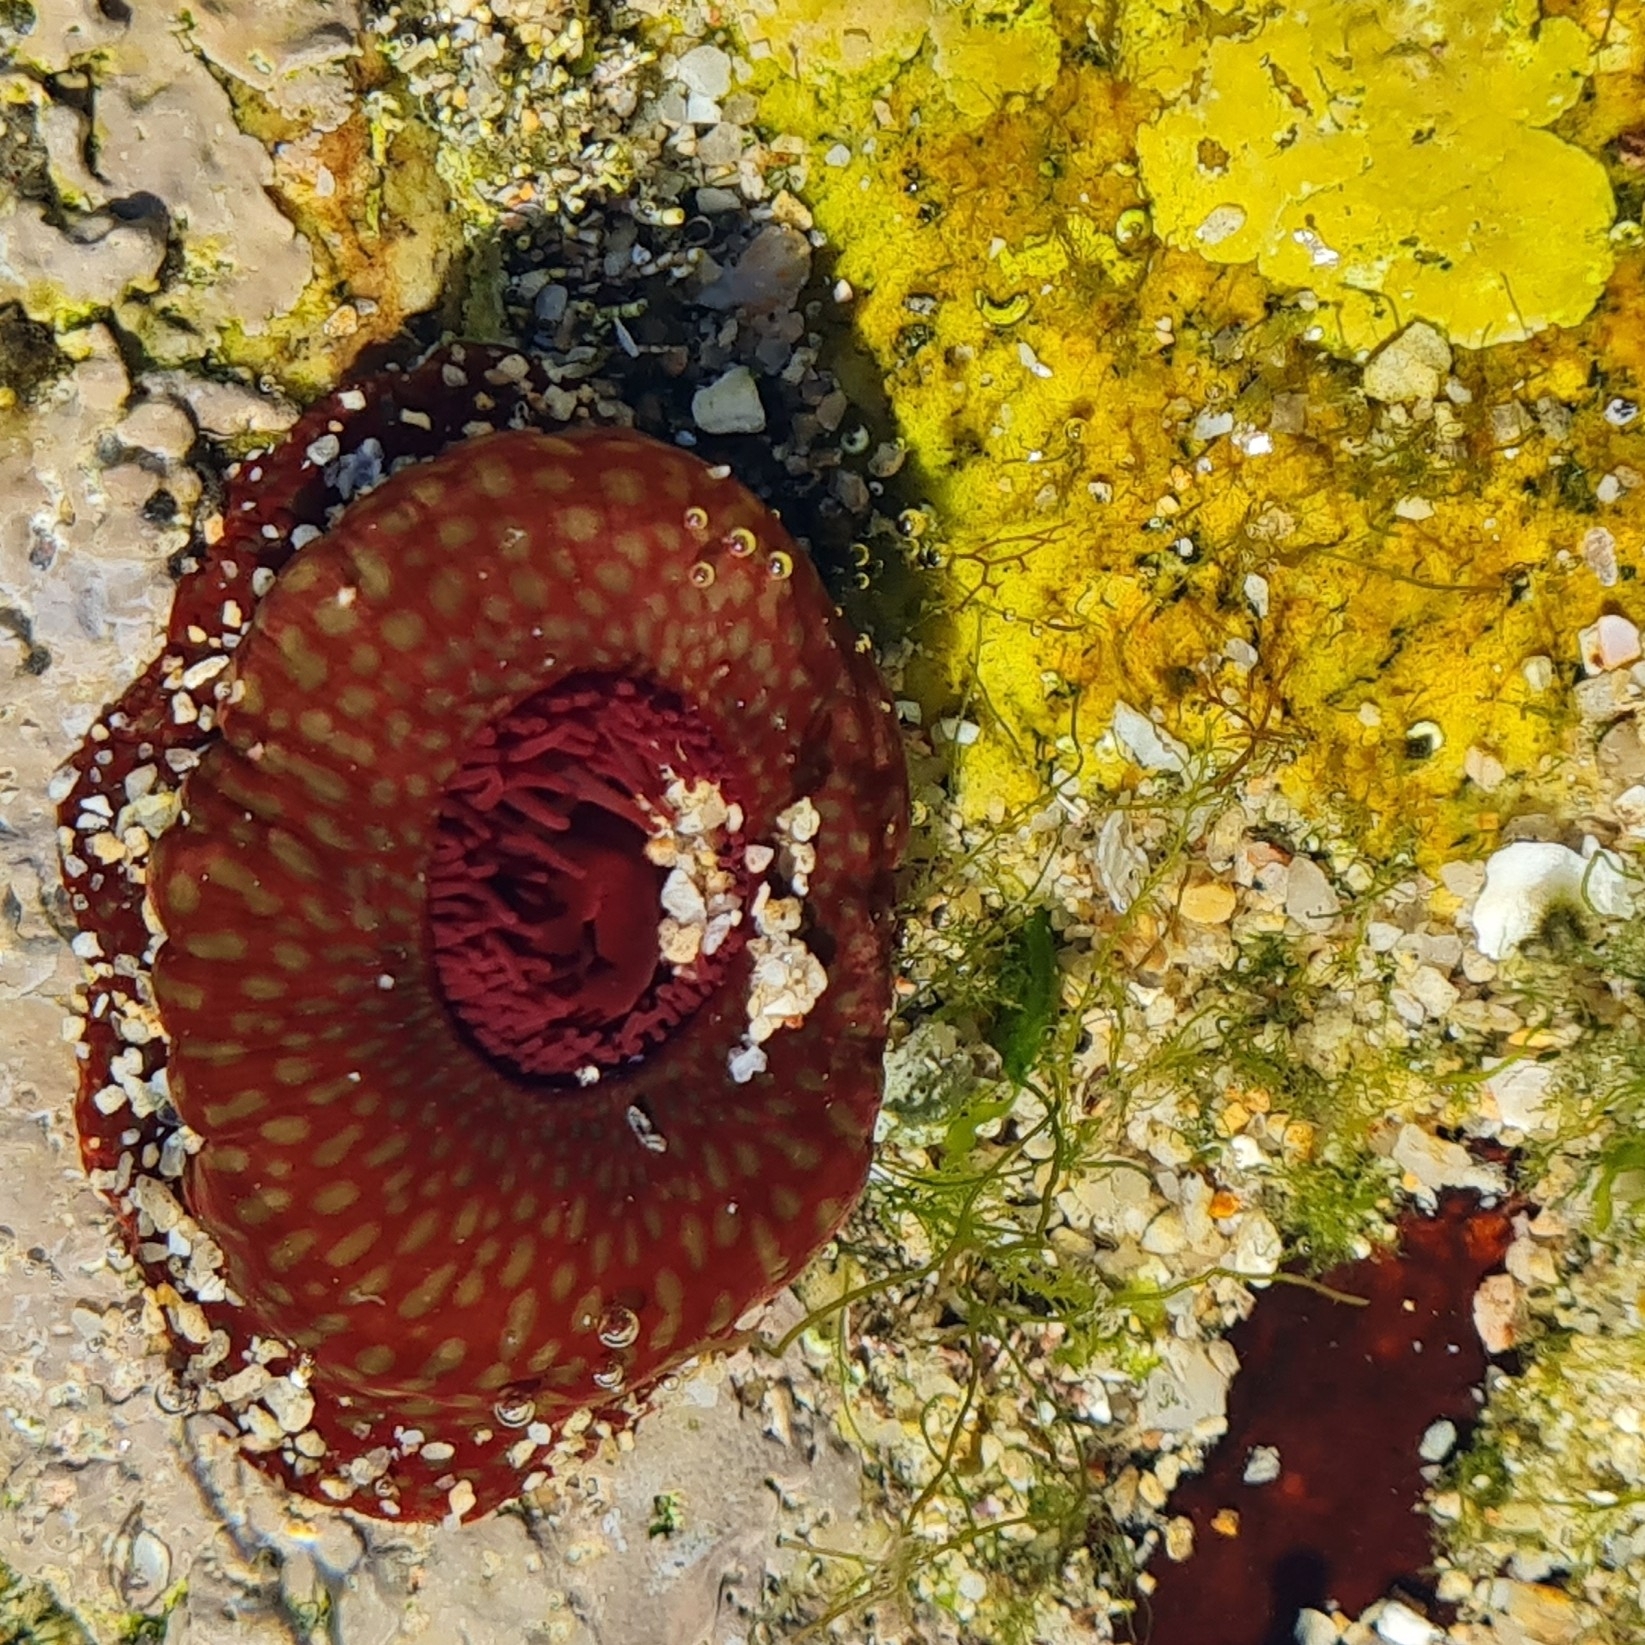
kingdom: Animalia
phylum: Cnidaria
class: Anthozoa
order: Actiniaria
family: Actiniidae
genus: Actinia
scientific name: Actinia fragacea
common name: Strawberry anemone
